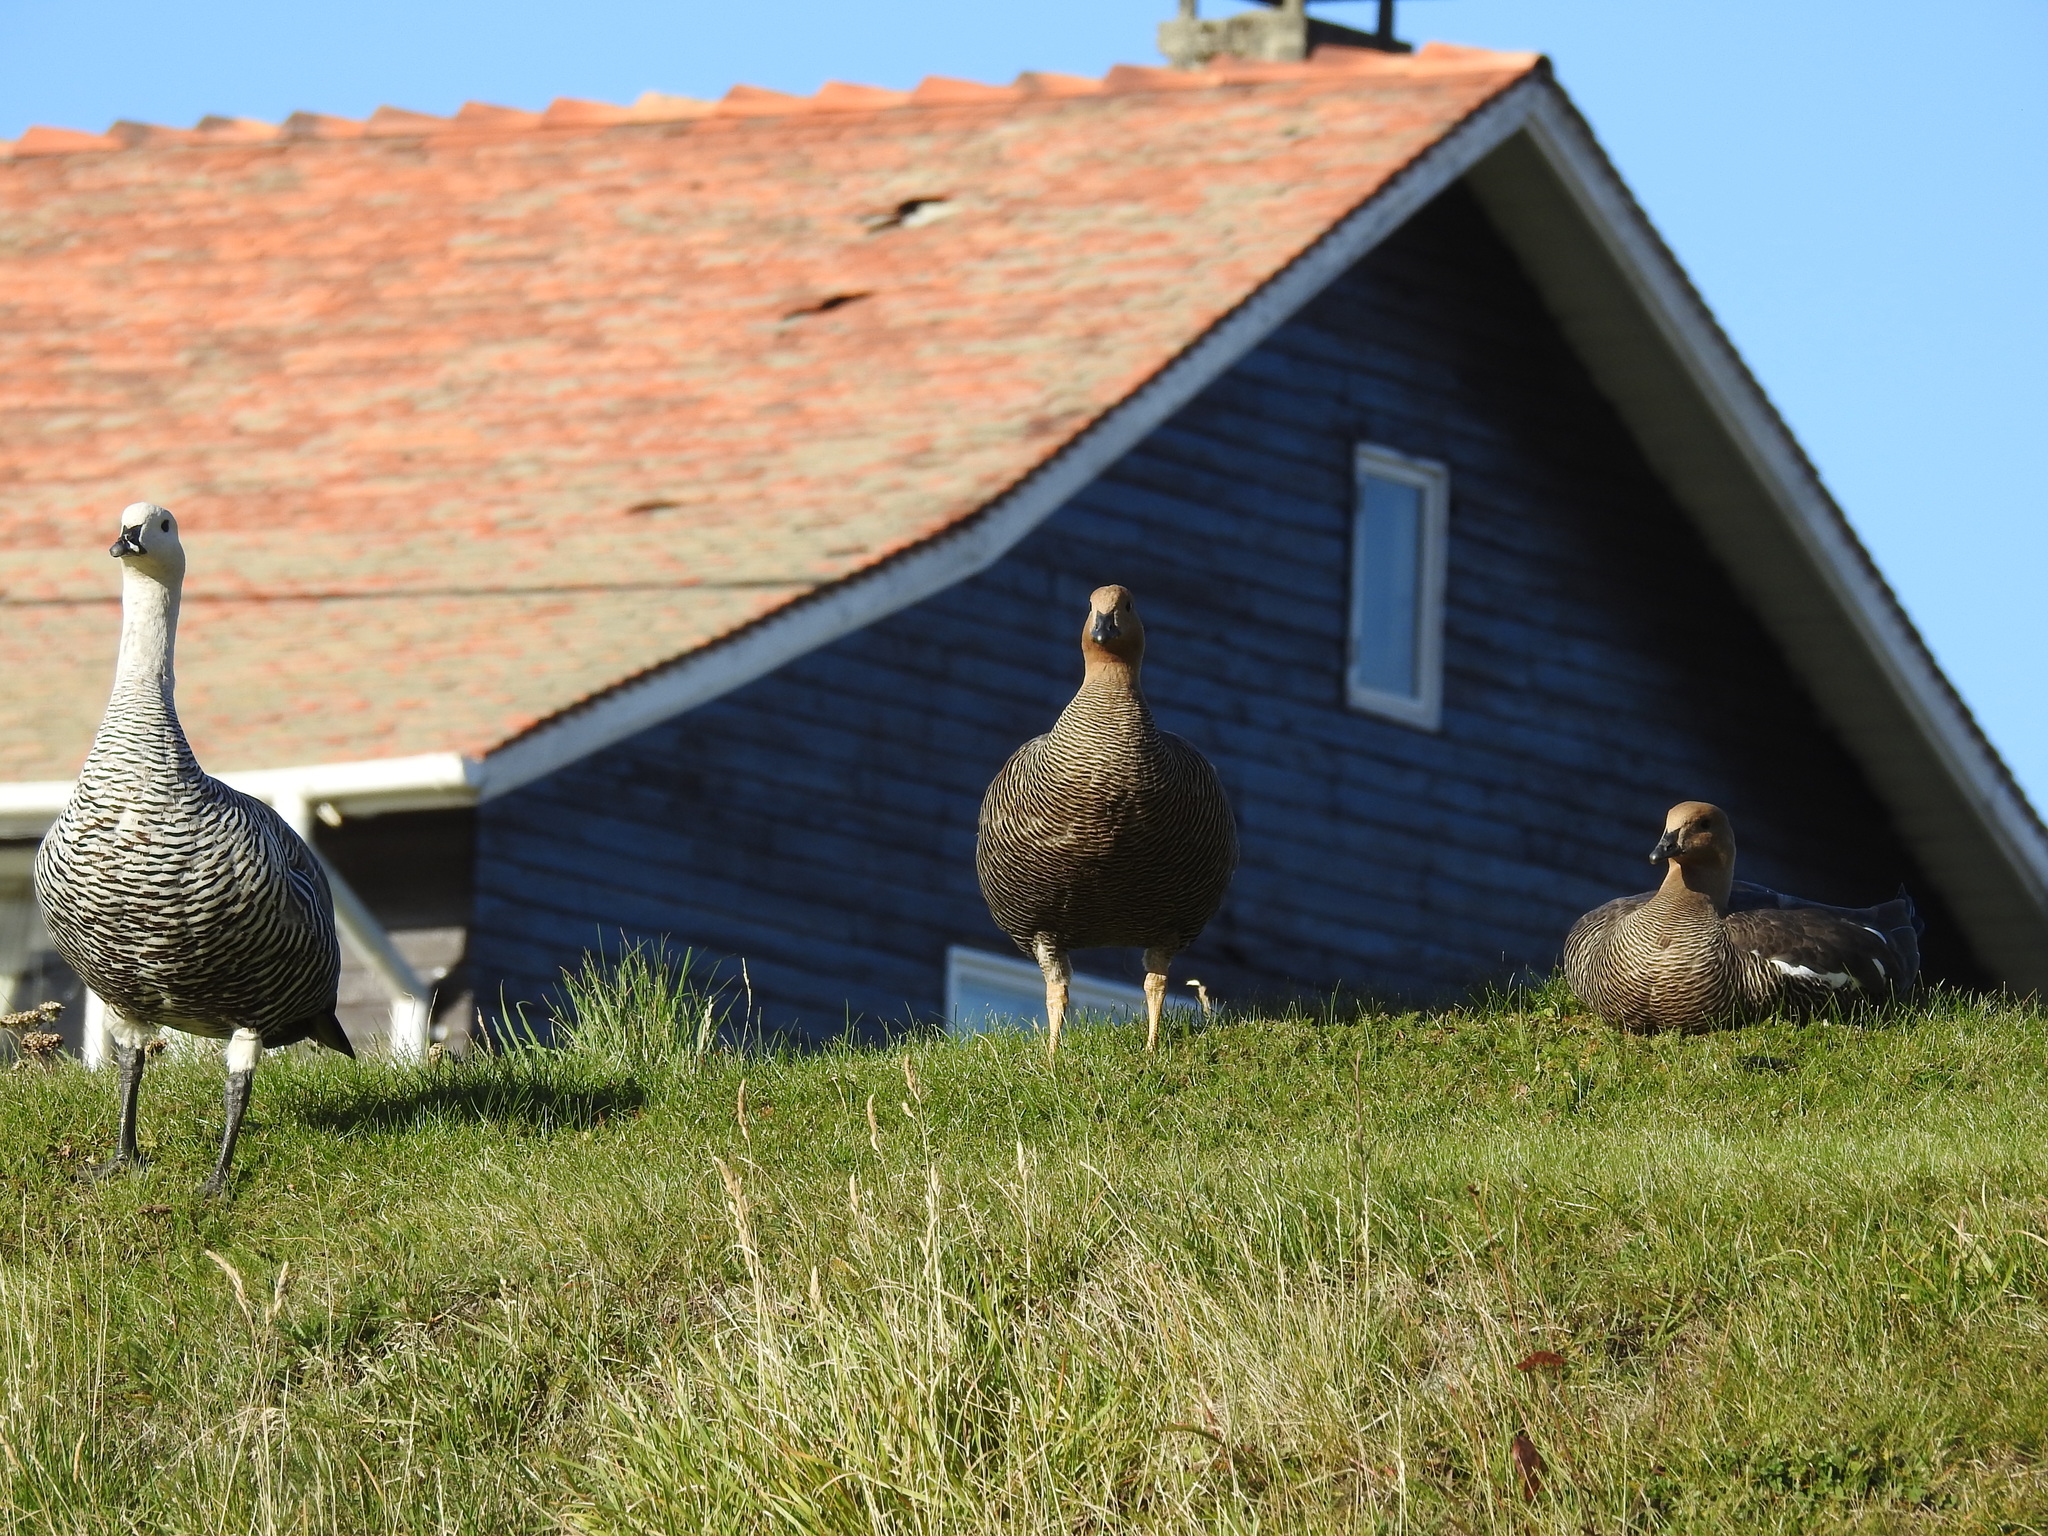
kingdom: Animalia
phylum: Chordata
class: Aves
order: Anseriformes
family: Anatidae
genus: Chloephaga
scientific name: Chloephaga picta
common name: Upland goose
